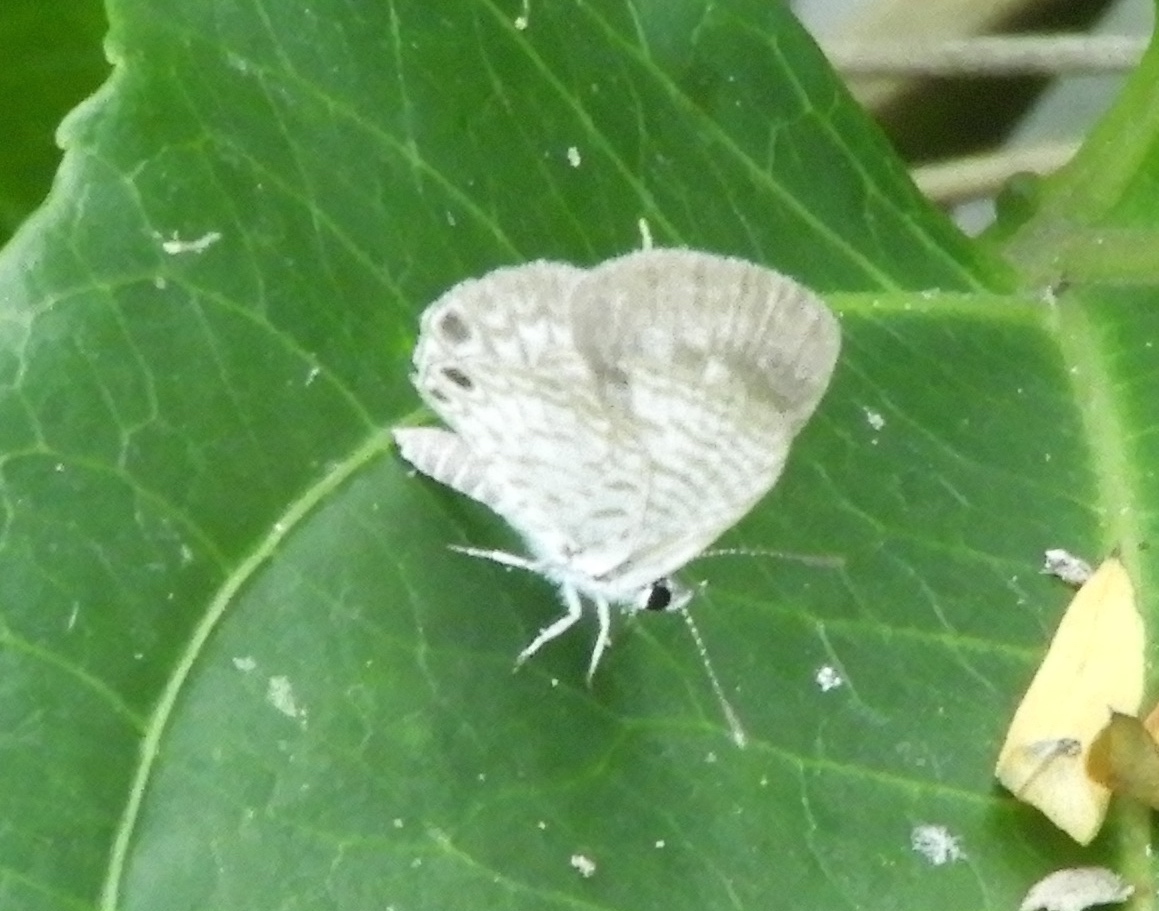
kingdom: Animalia
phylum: Arthropoda
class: Insecta
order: Lepidoptera
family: Lycaenidae
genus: Leptotes
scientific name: Leptotes theonus
